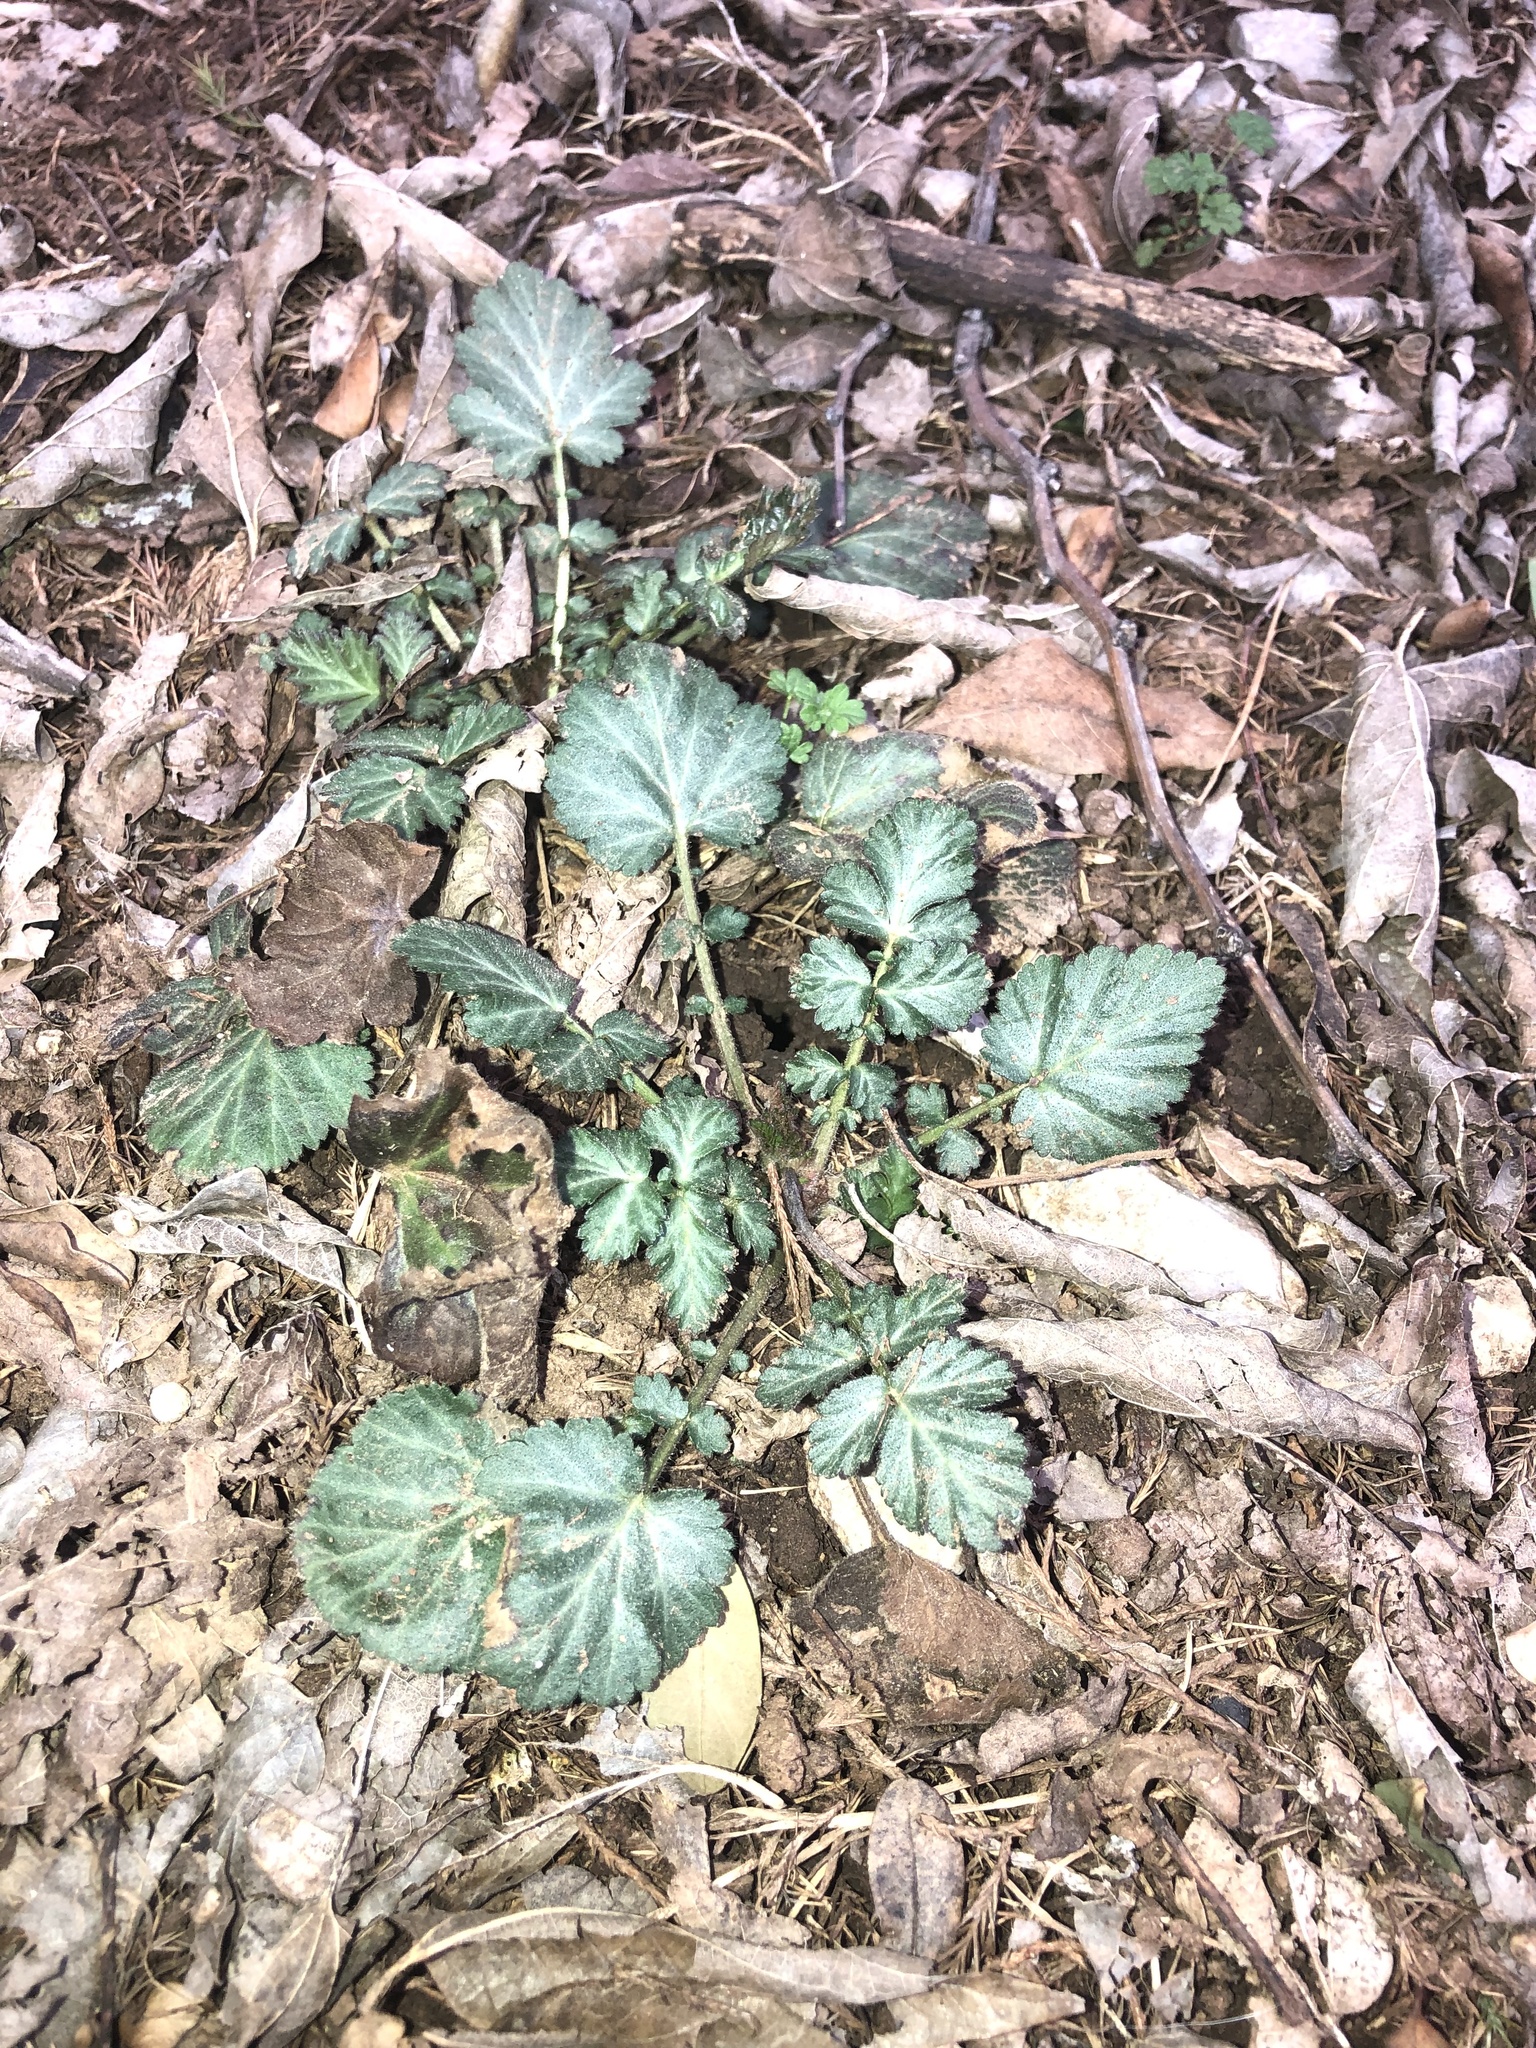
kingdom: Plantae
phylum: Tracheophyta
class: Magnoliopsida
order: Rosales
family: Rosaceae
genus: Geum
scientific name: Geum canadense
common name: White avens
